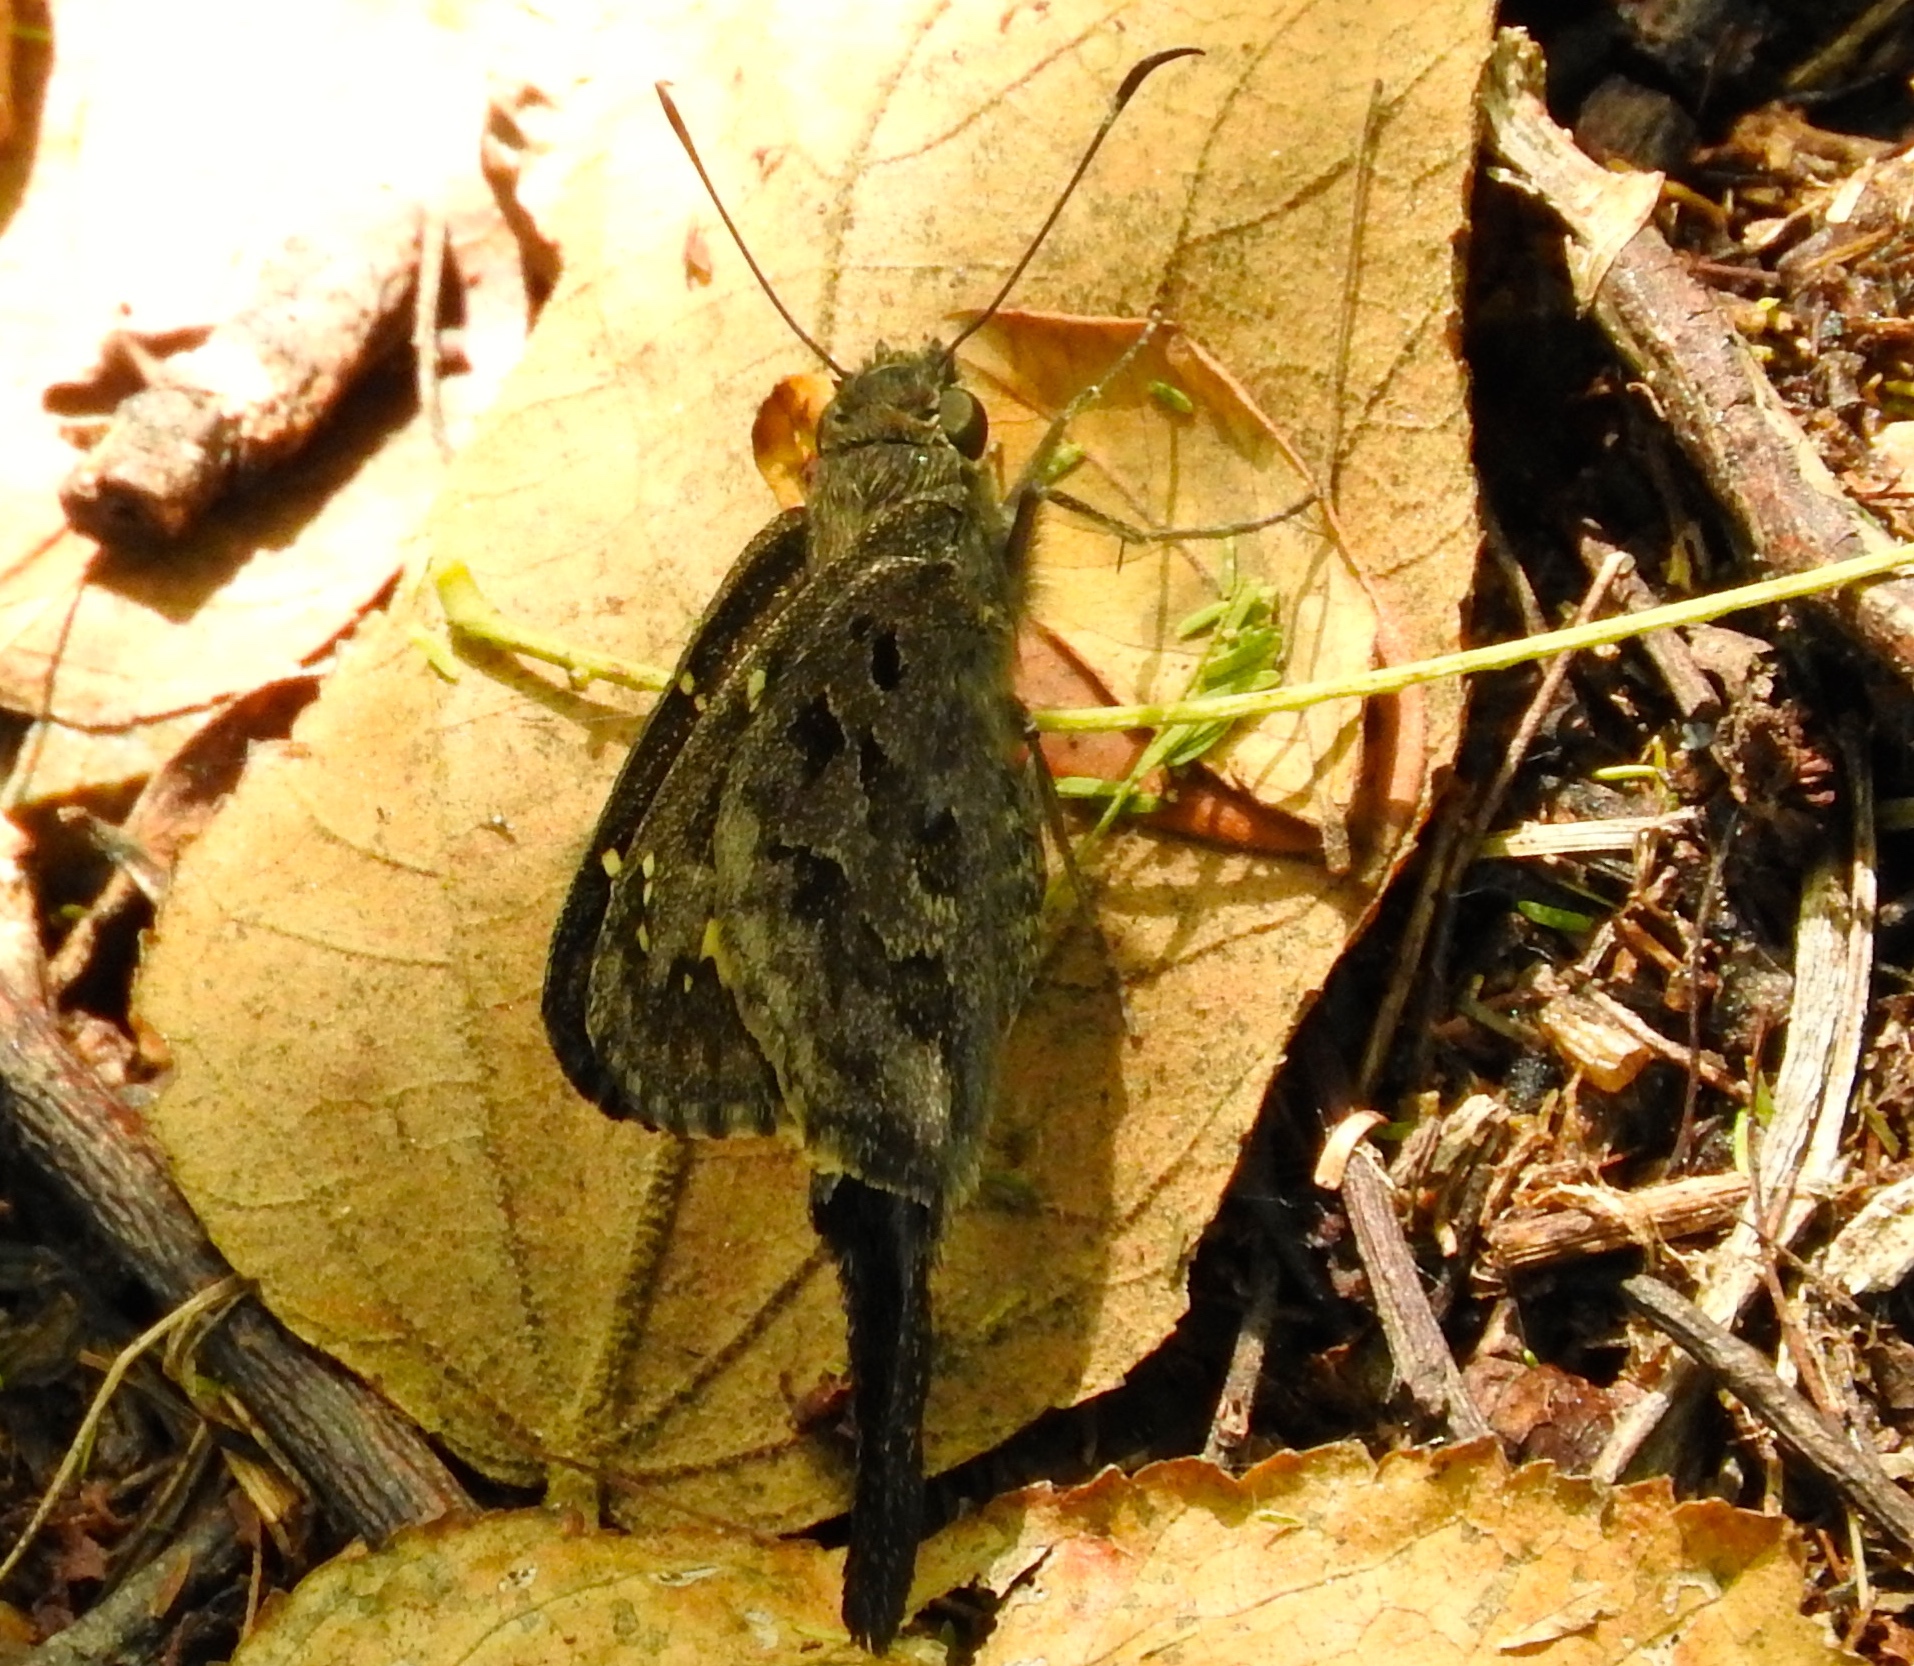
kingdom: Animalia
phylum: Arthropoda
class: Insecta
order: Lepidoptera
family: Hesperiidae
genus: Thorybes
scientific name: Thorybes
